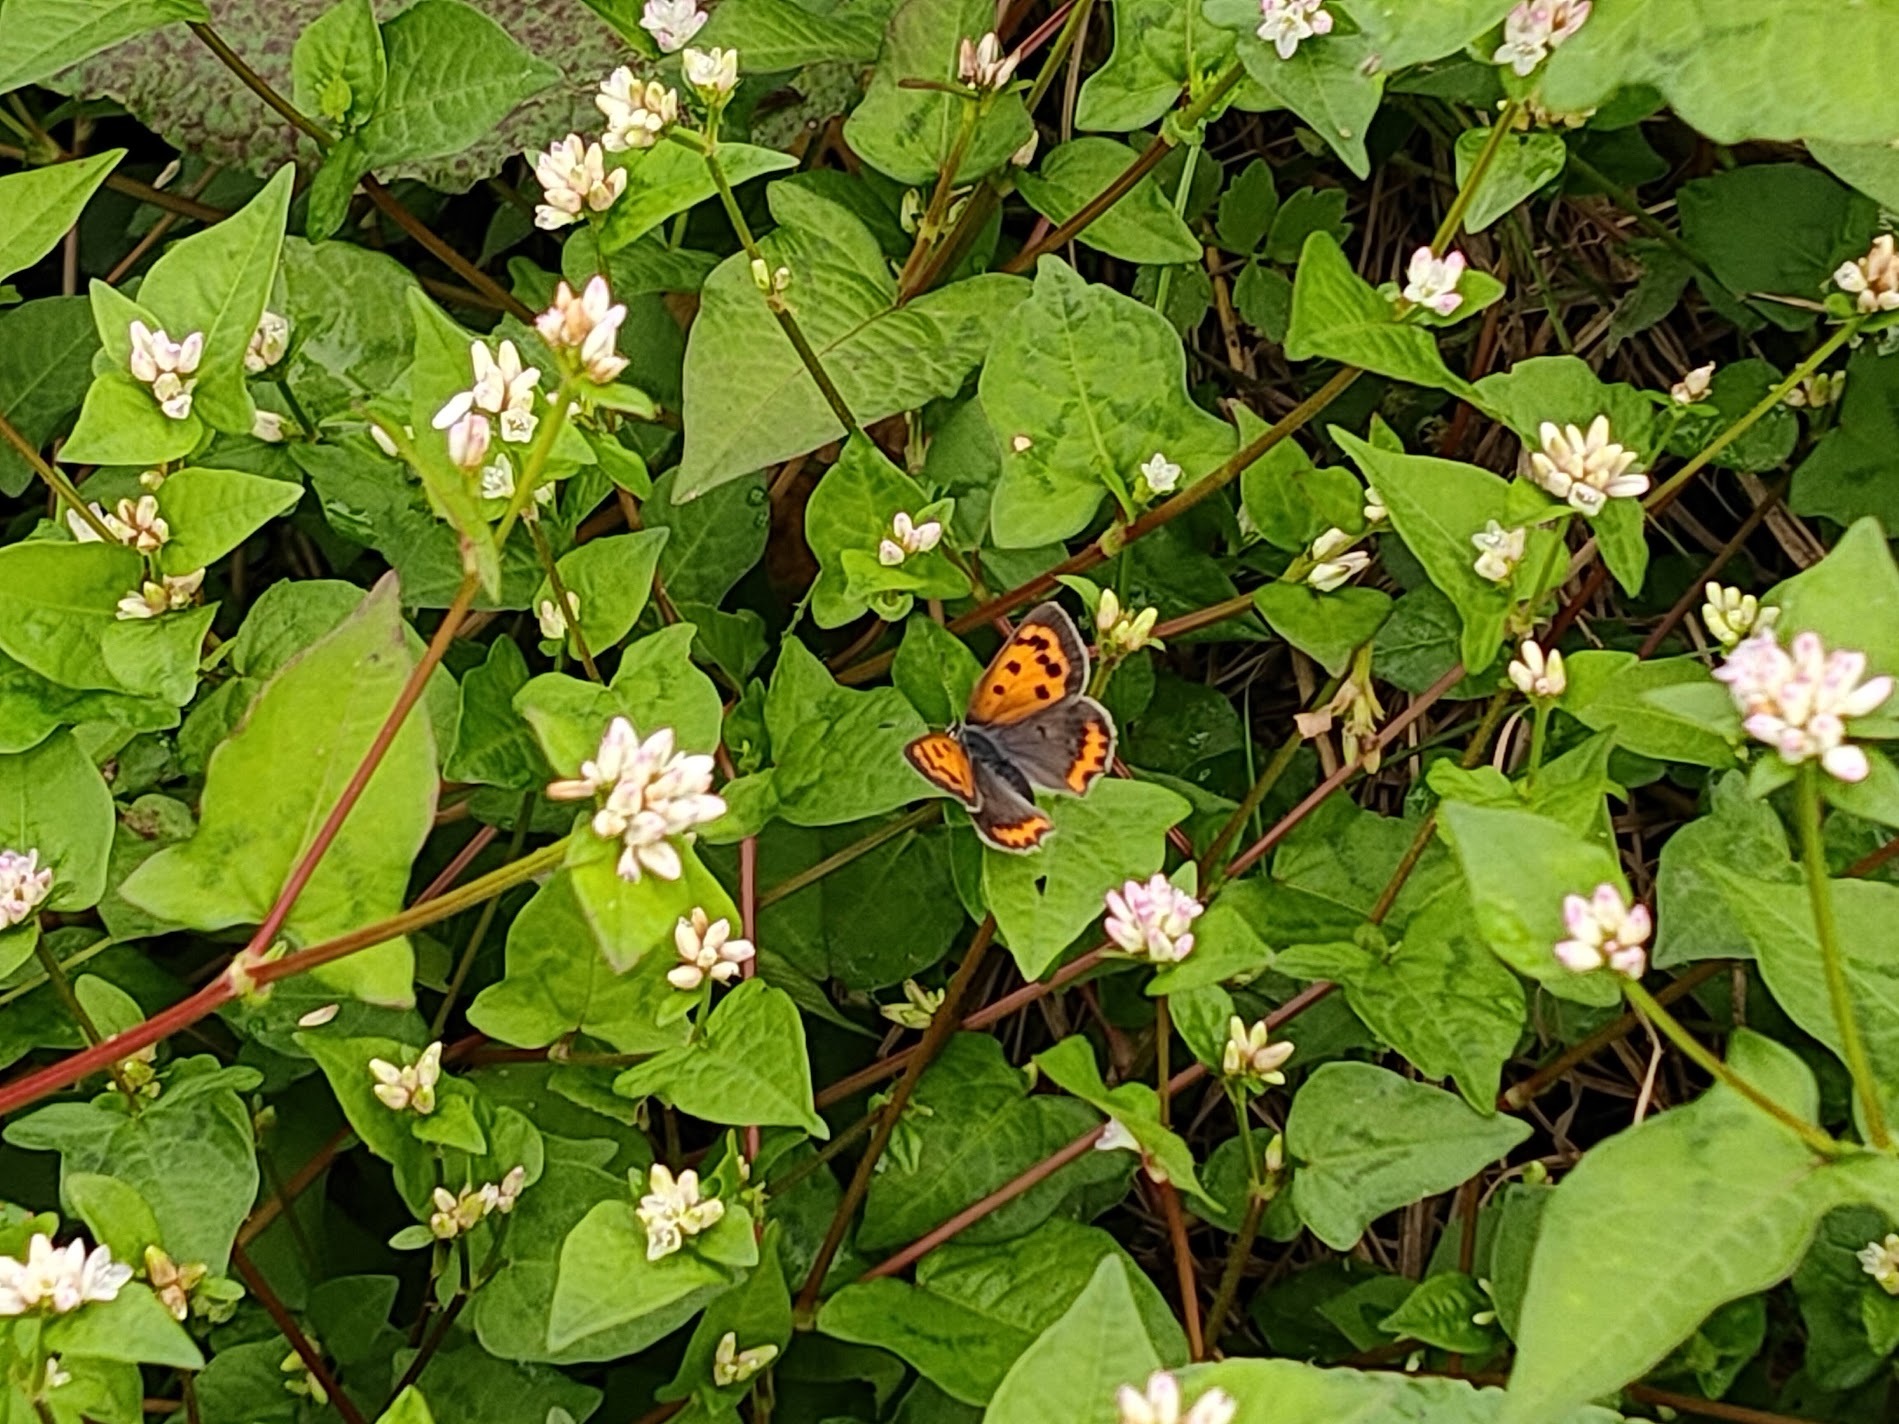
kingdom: Animalia
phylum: Arthropoda
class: Insecta
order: Lepidoptera
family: Lycaenidae
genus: Lycaena
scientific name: Lycaena phlaeas
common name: Small copper
